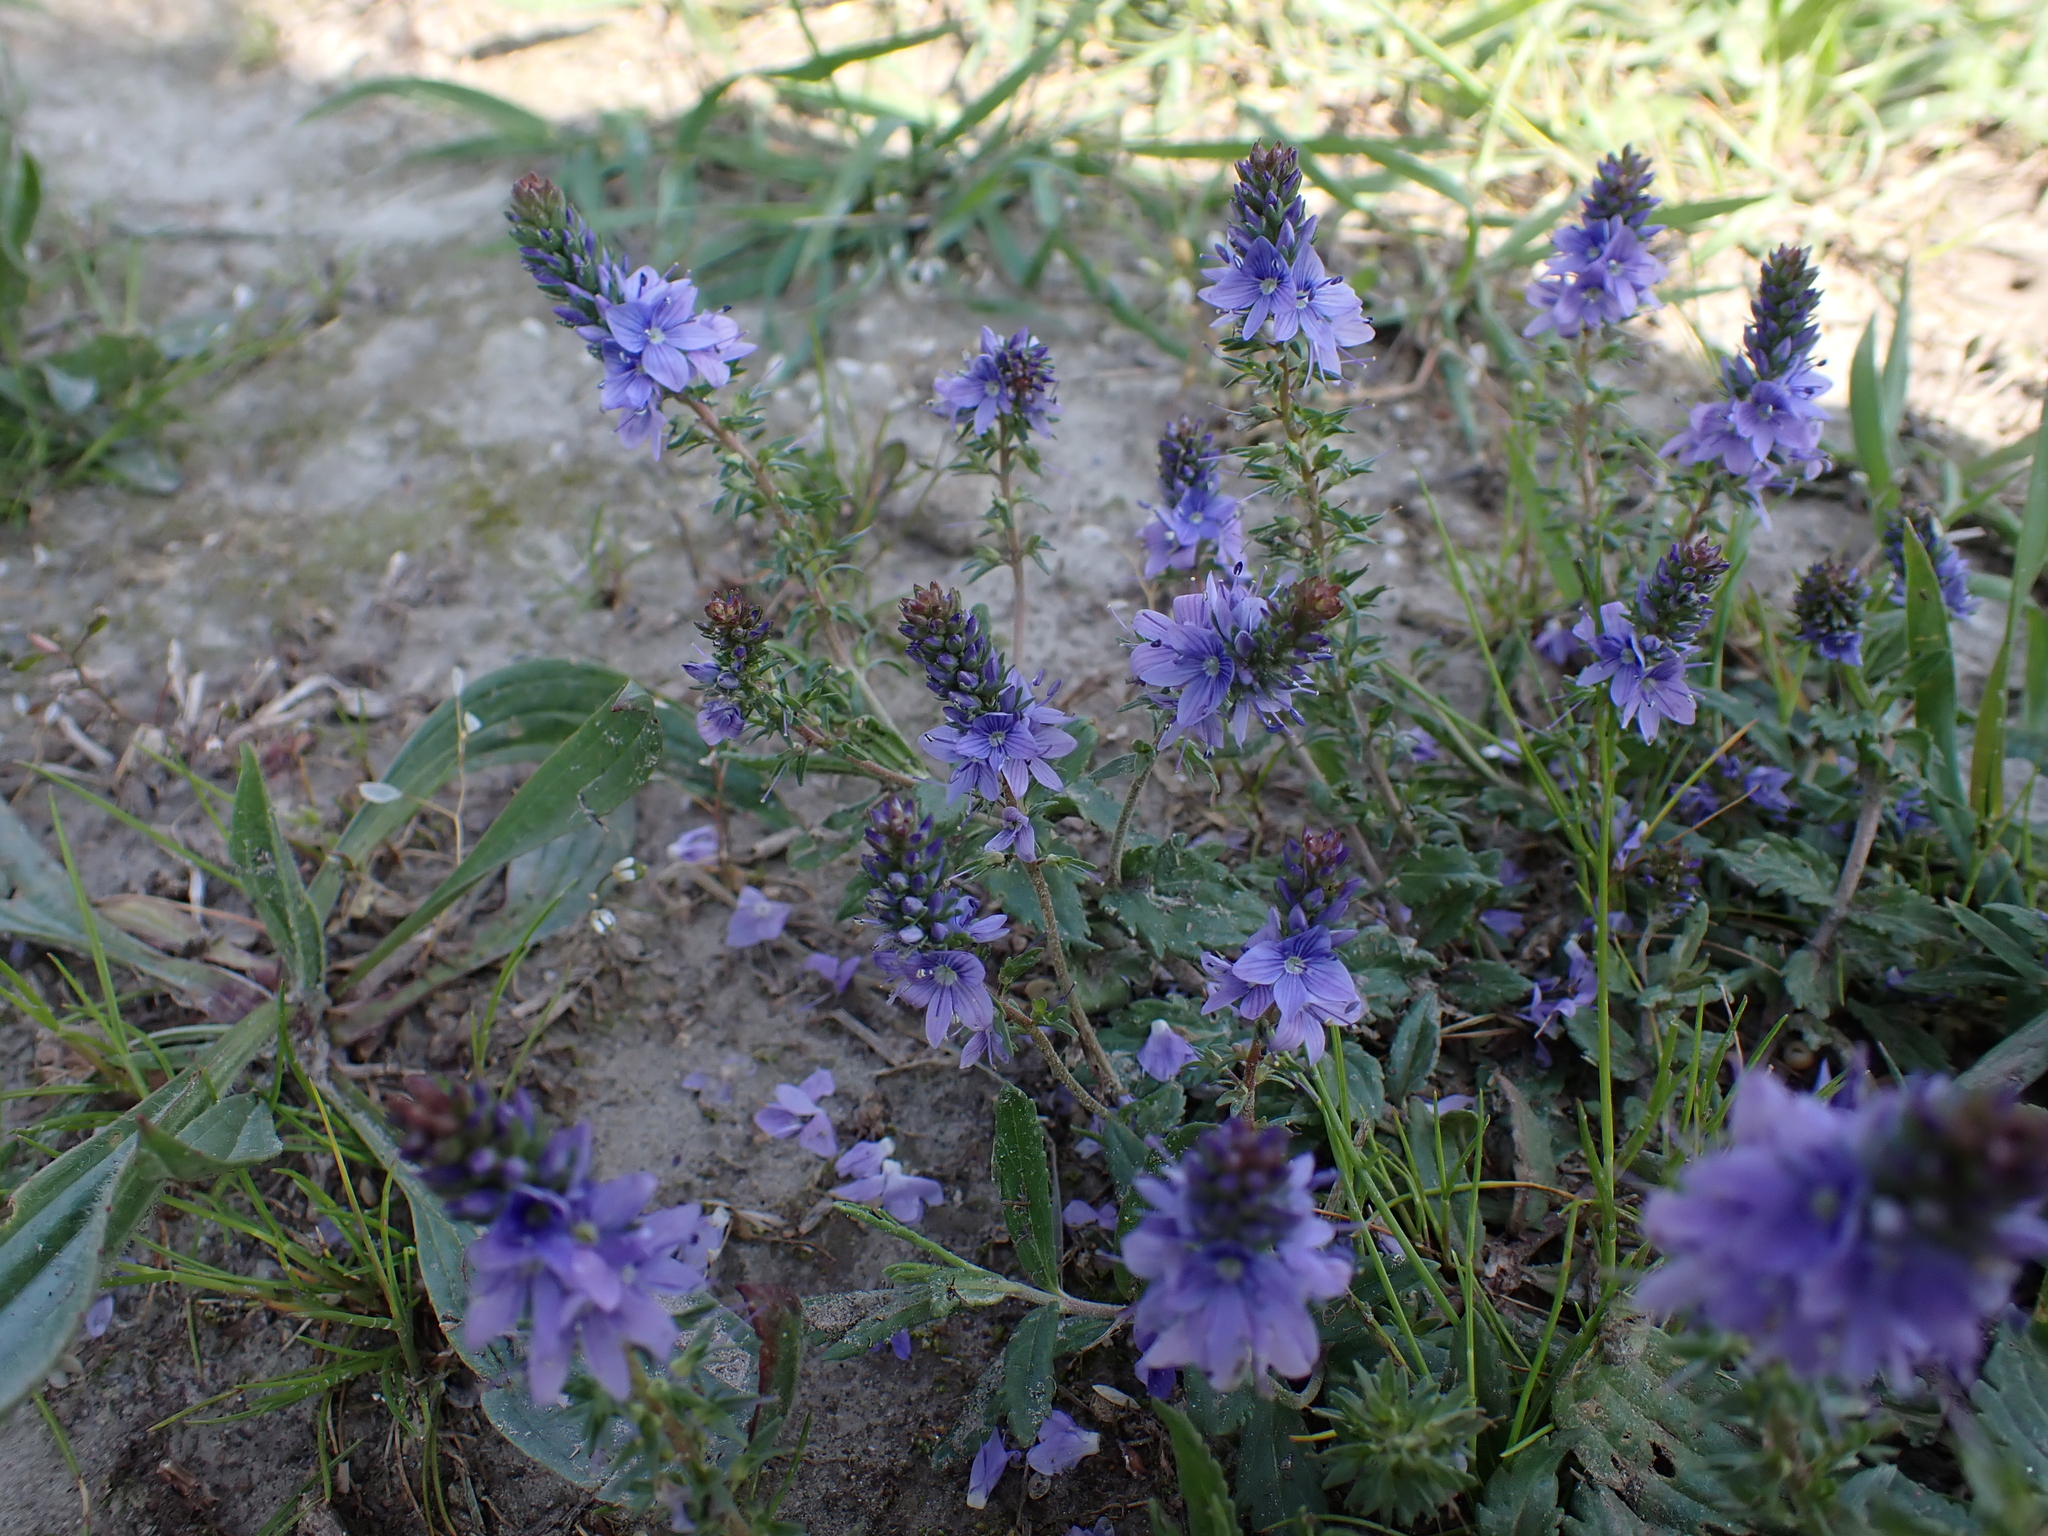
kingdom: Plantae
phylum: Tracheophyta
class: Magnoliopsida
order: Lamiales
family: Plantaginaceae
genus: Veronica
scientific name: Veronica prostrata
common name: Prostrate speedwell
